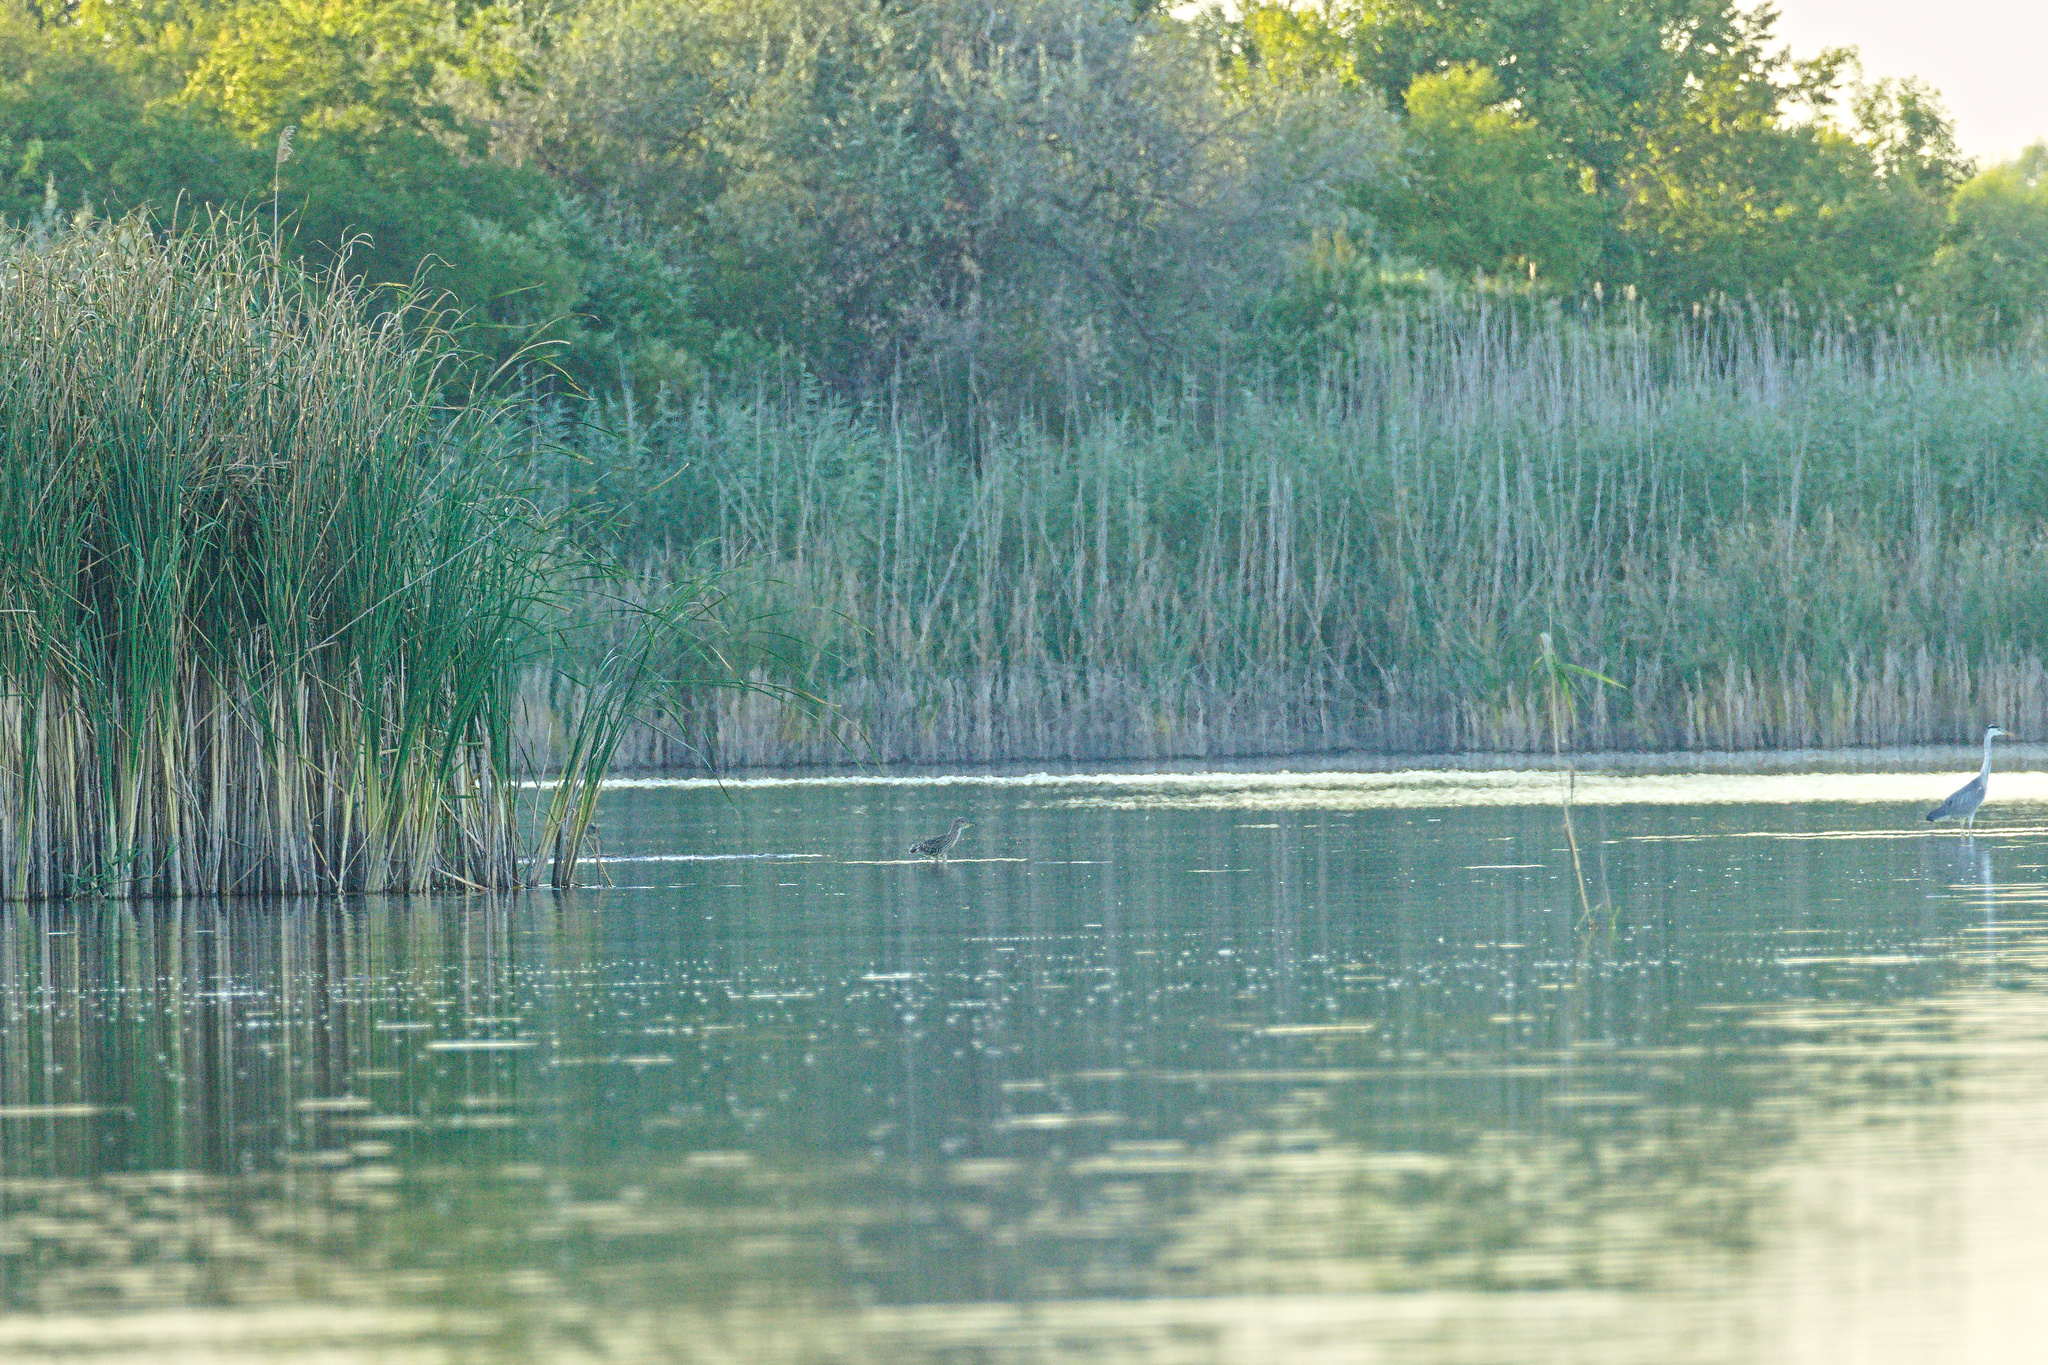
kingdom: Animalia
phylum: Chordata
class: Aves
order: Pelecaniformes
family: Ardeidae
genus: Nycticorax
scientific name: Nycticorax nycticorax
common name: Black-crowned night heron
